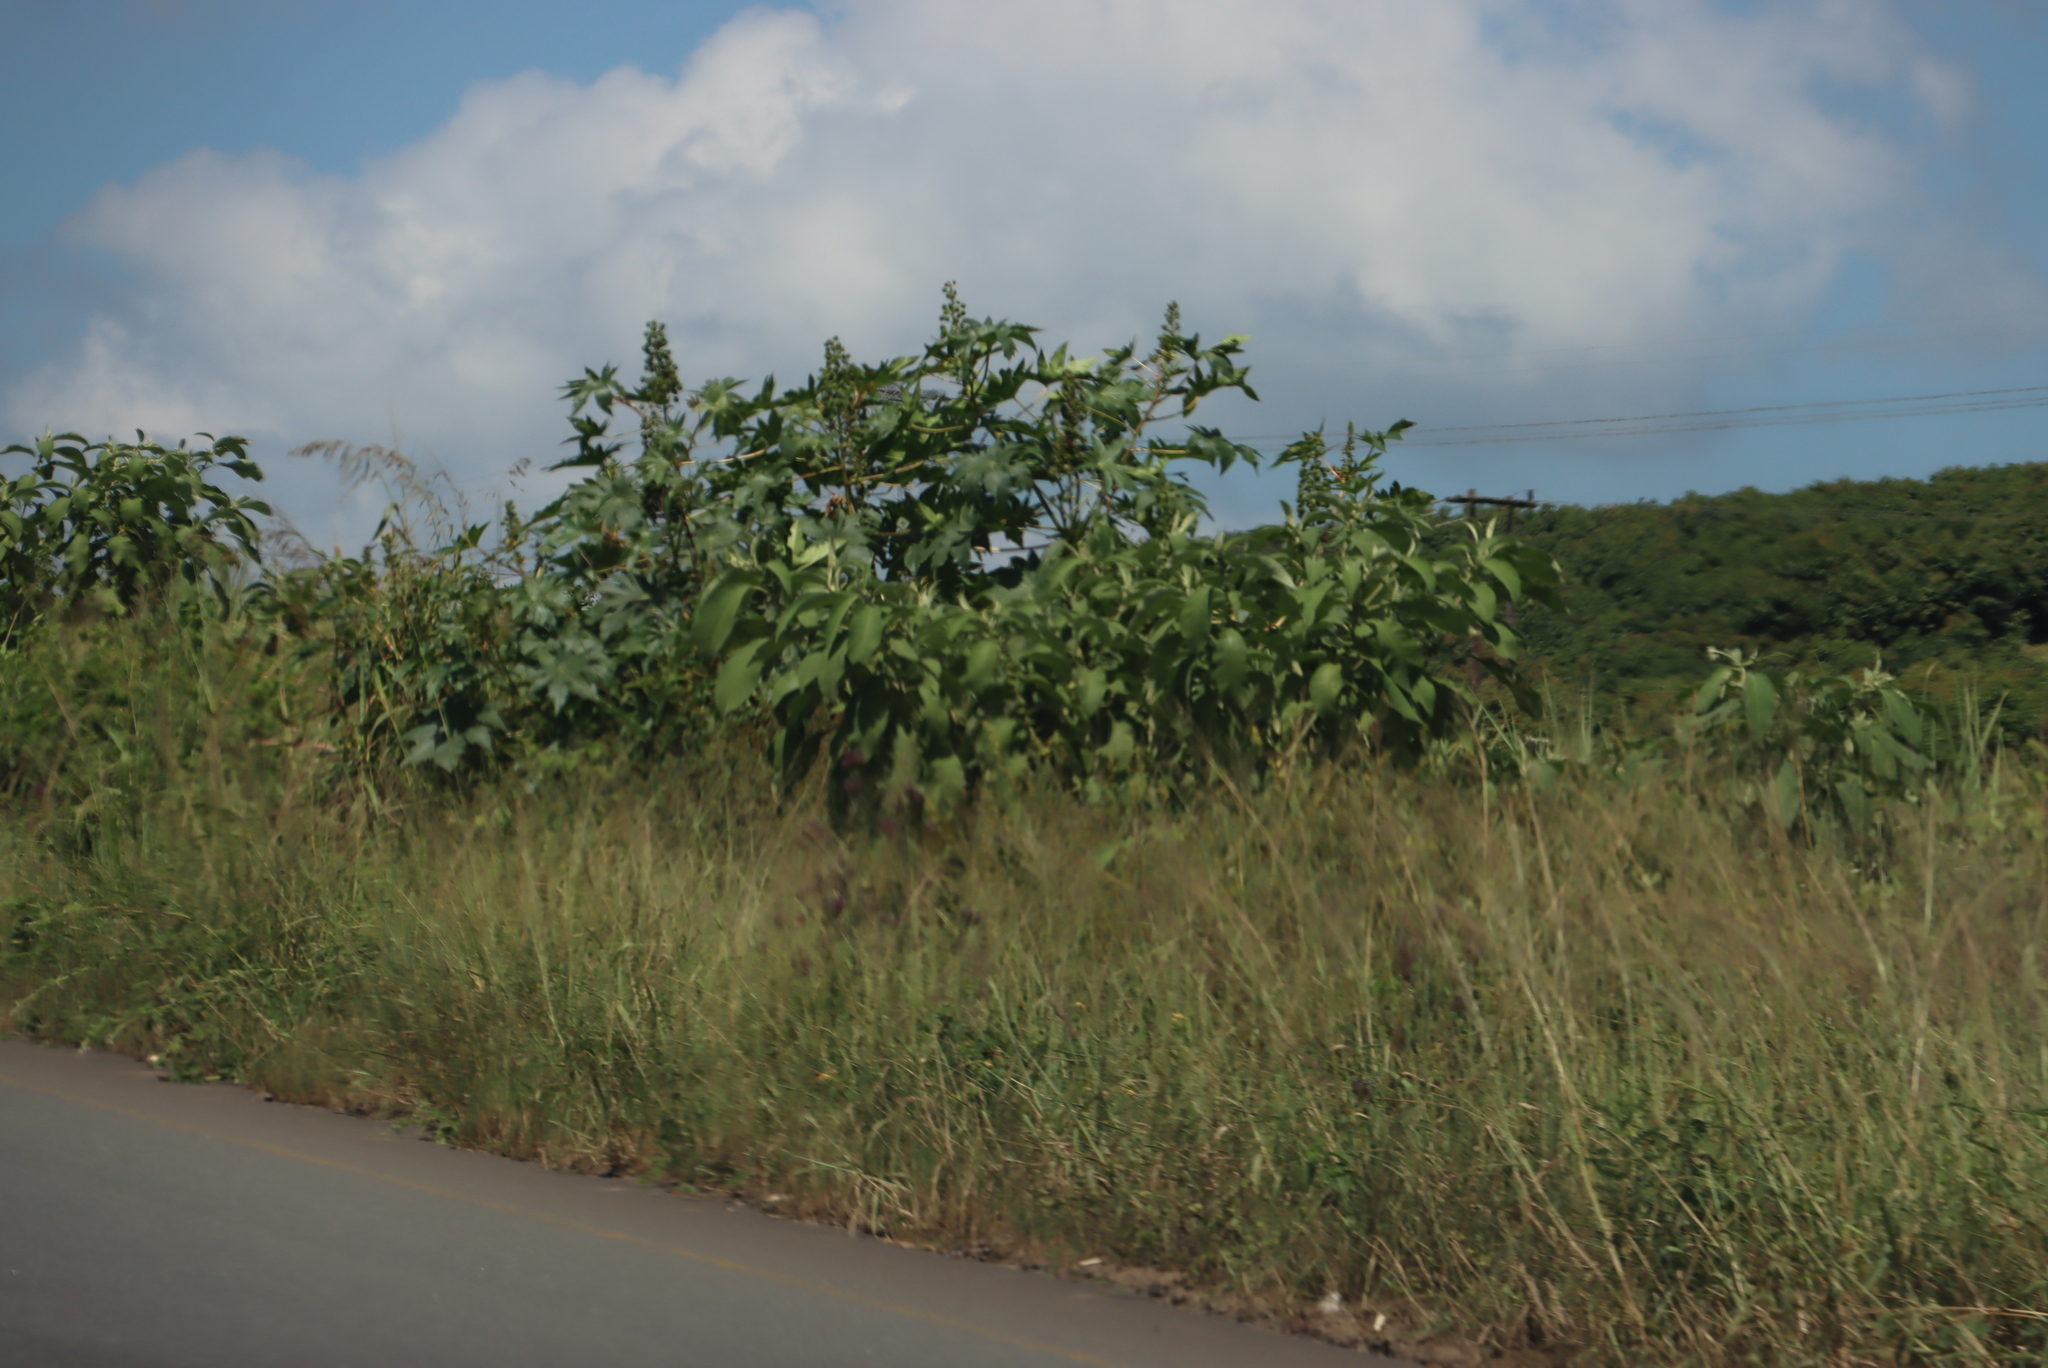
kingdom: Plantae
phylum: Tracheophyta
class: Magnoliopsida
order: Solanales
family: Solanaceae
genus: Solanum
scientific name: Solanum mauritianum
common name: Earleaf nightshade
